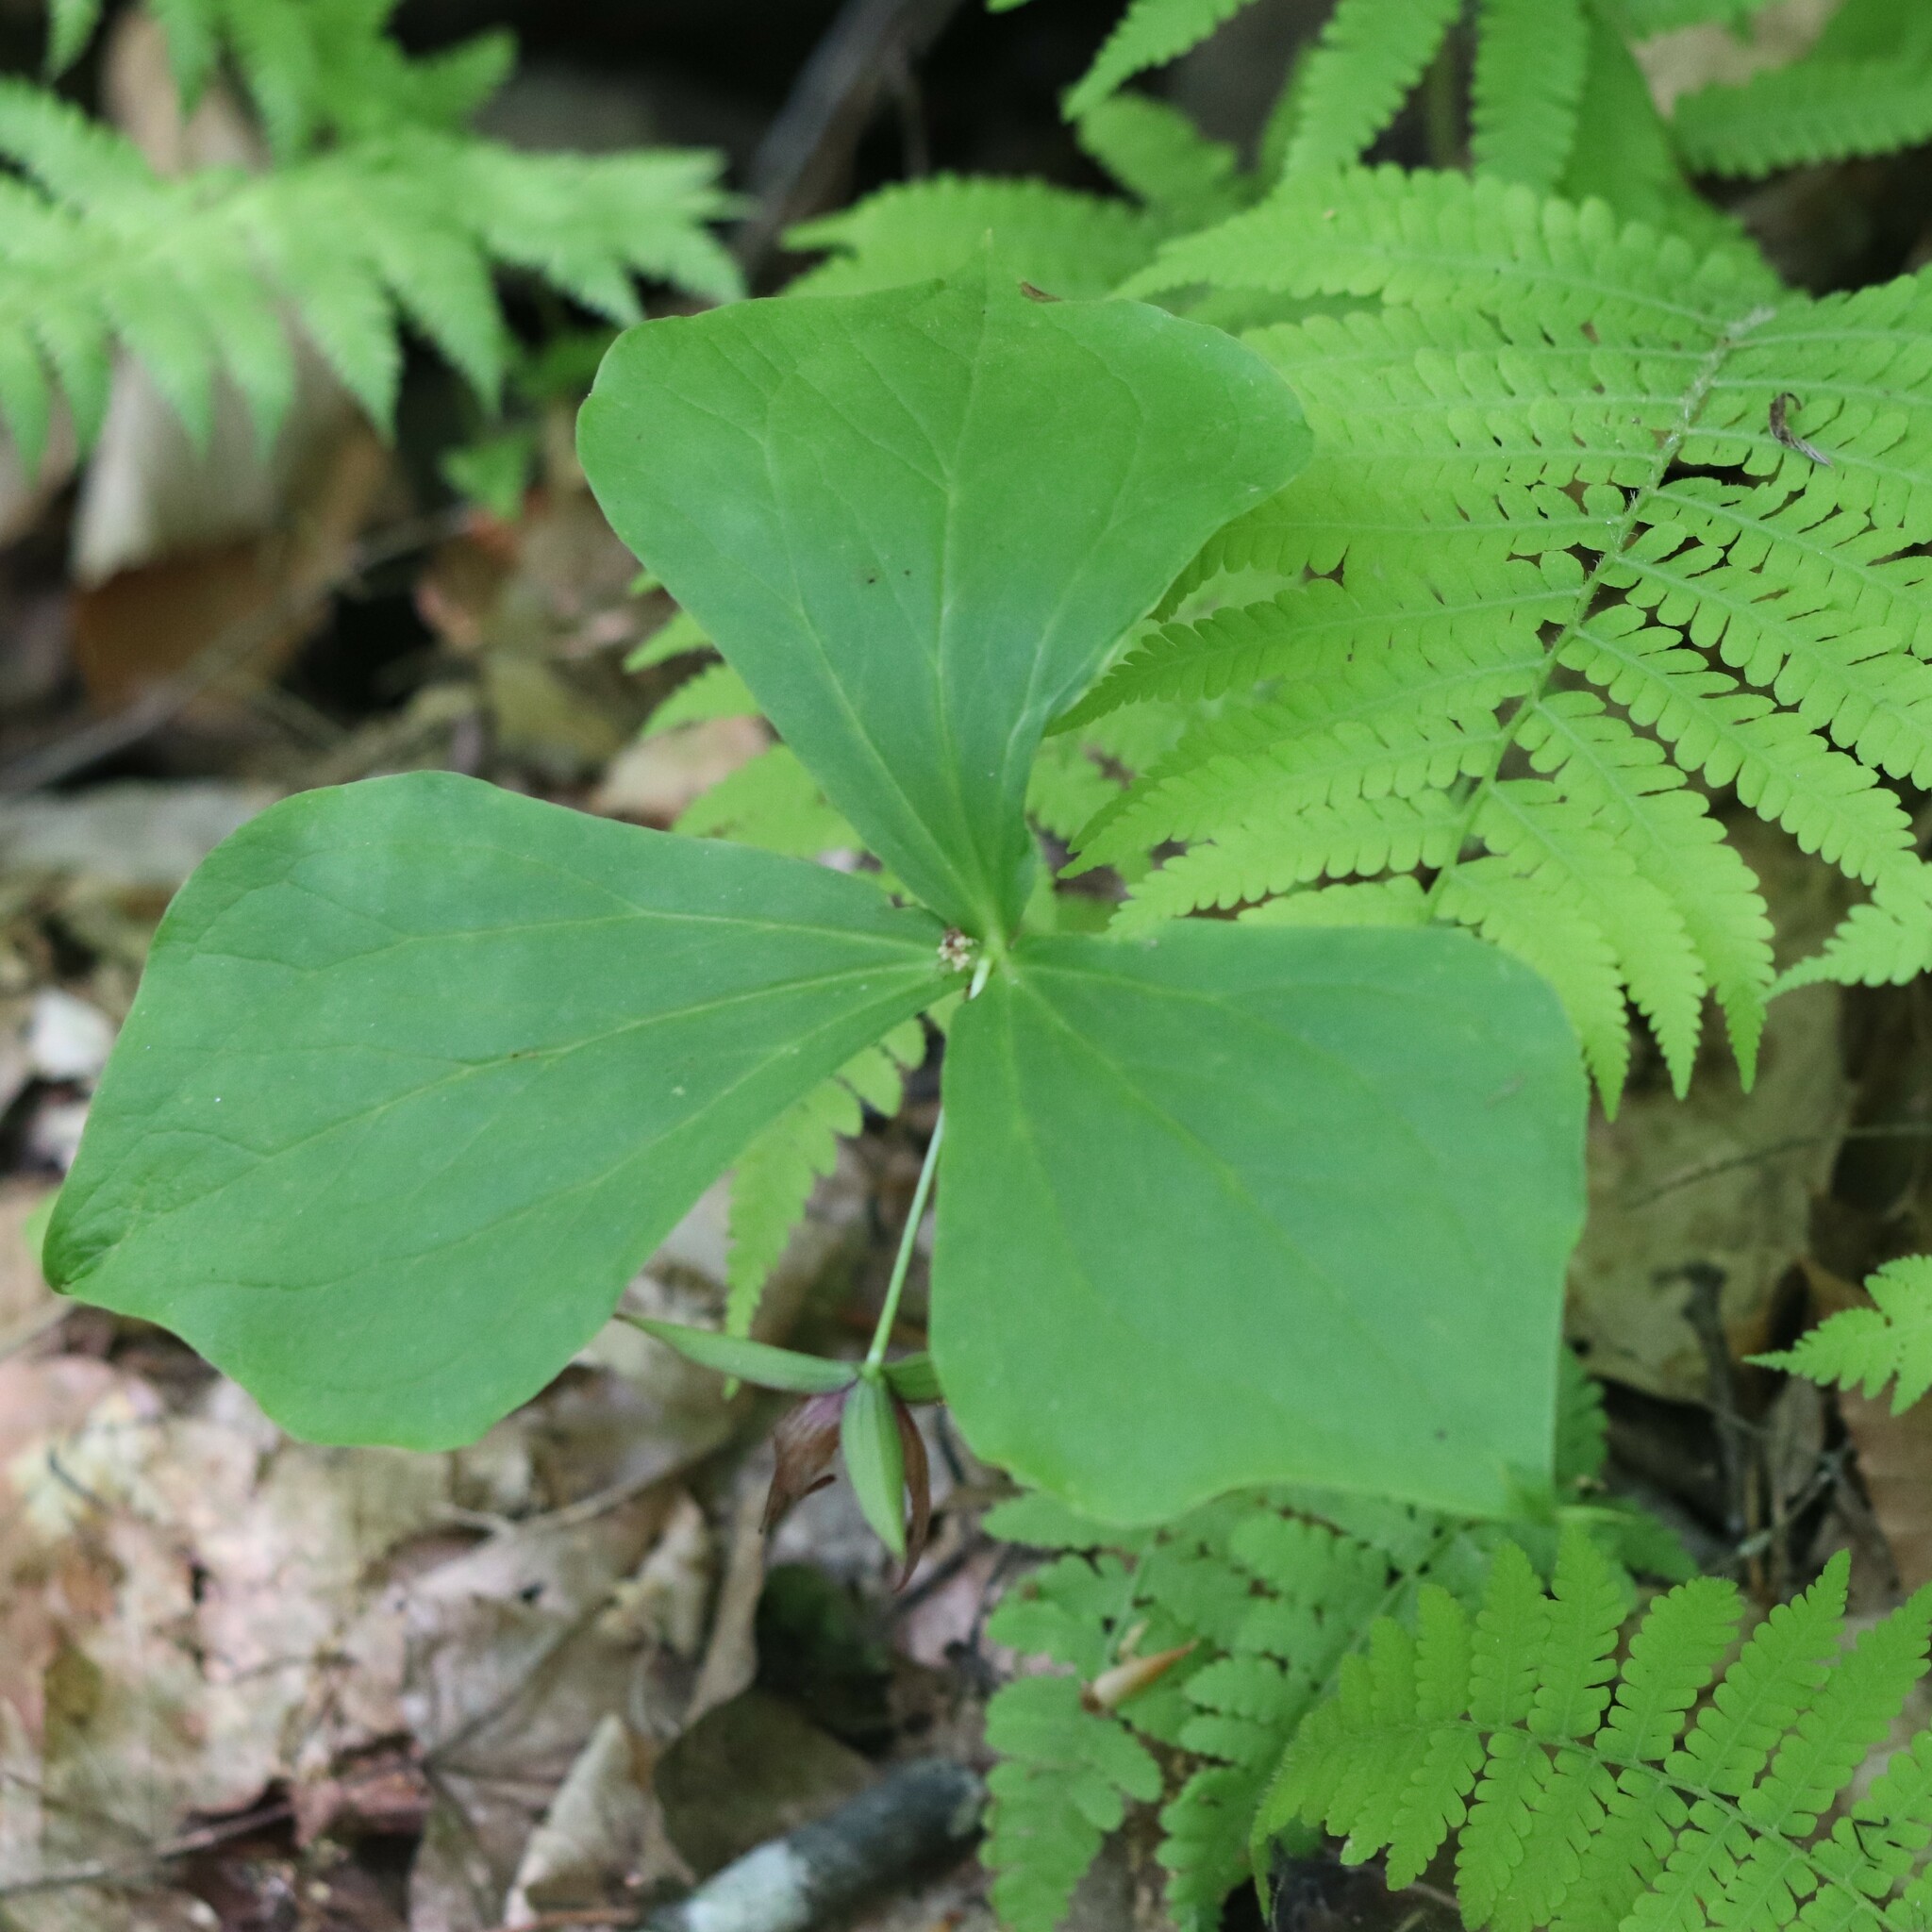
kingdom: Plantae
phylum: Tracheophyta
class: Liliopsida
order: Liliales
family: Melanthiaceae
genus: Trillium
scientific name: Trillium erectum
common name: Purple trillium
